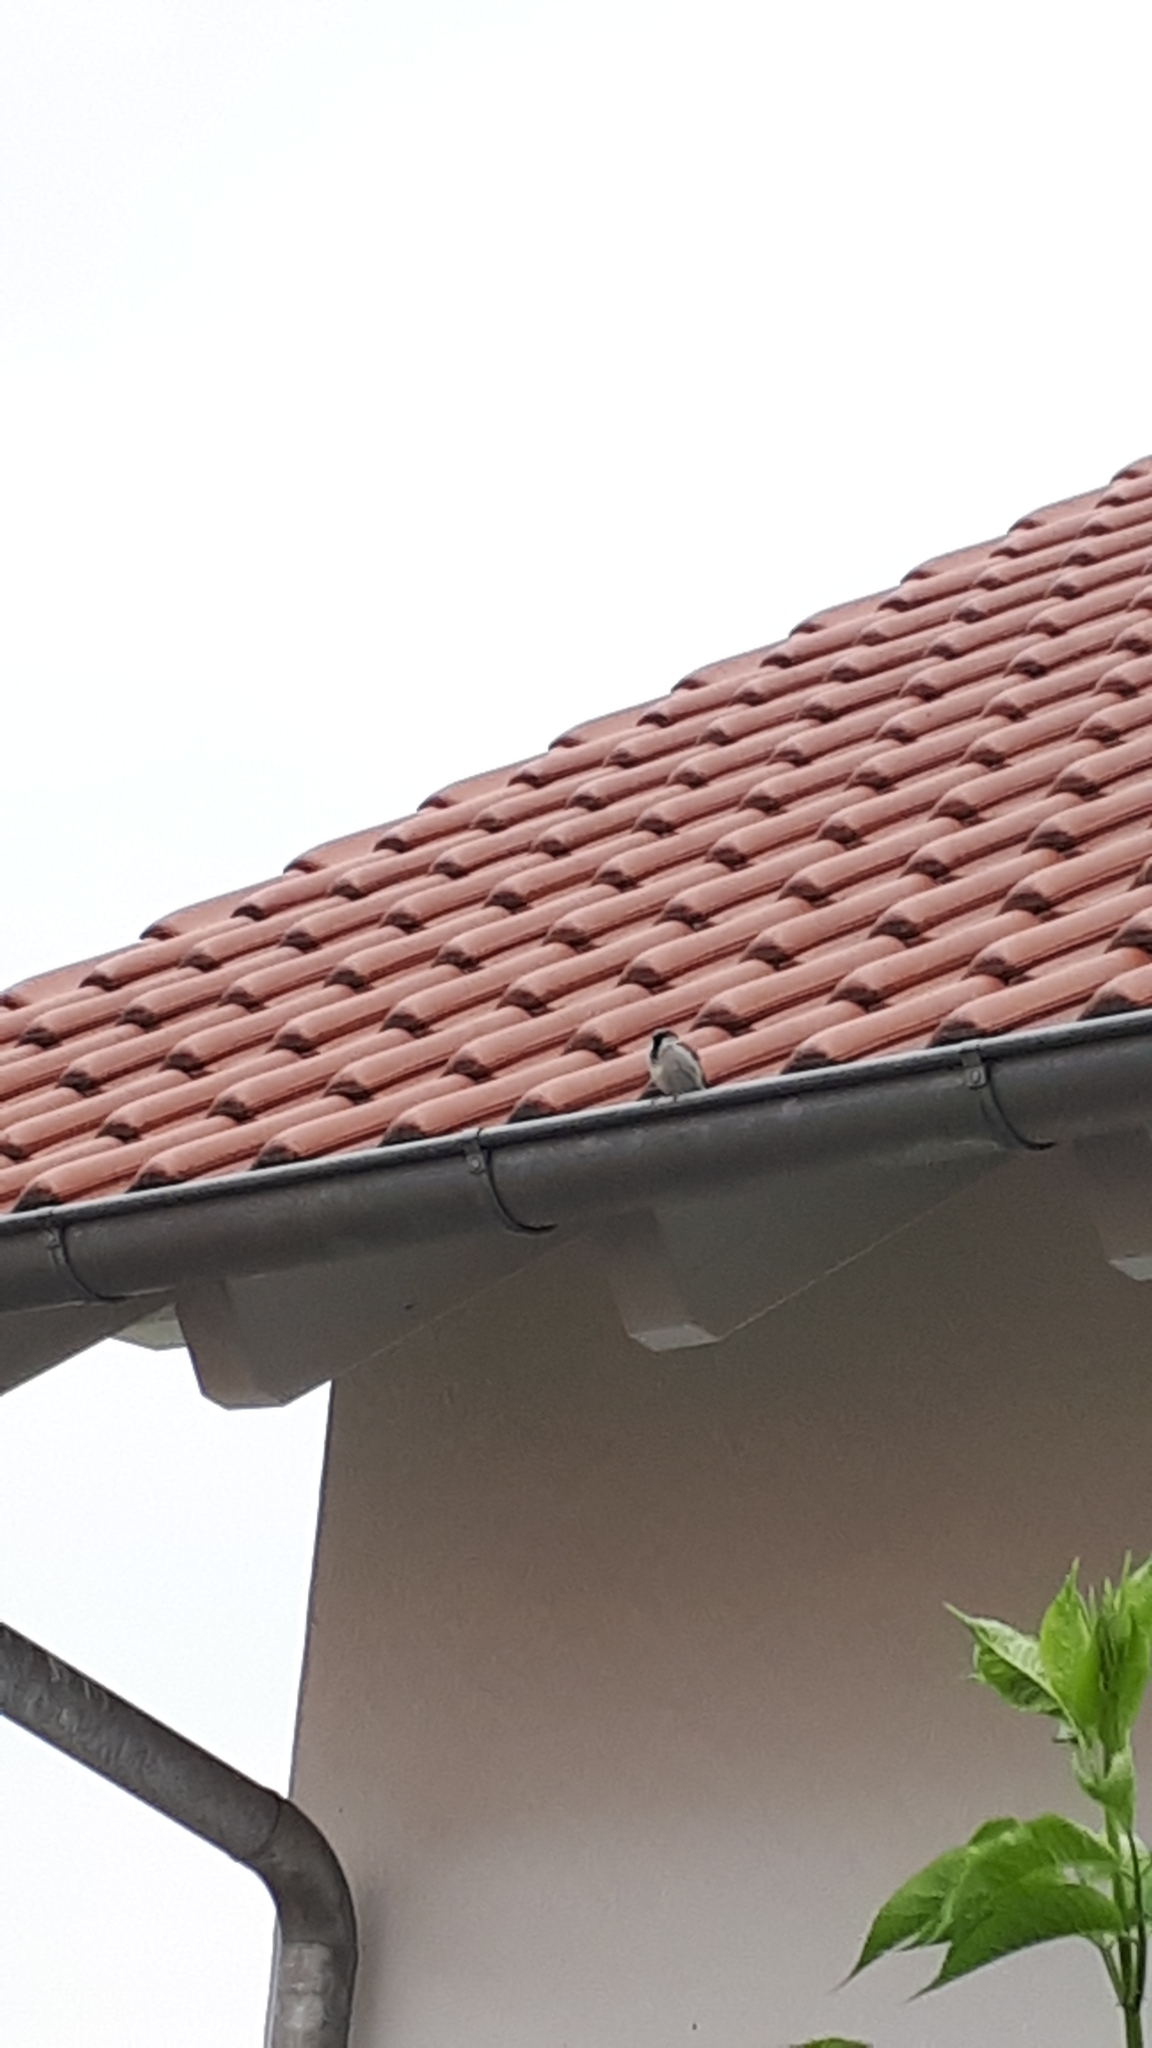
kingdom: Animalia
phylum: Chordata
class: Aves
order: Passeriformes
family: Passeridae
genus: Passer
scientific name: Passer domesticus
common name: House sparrow
